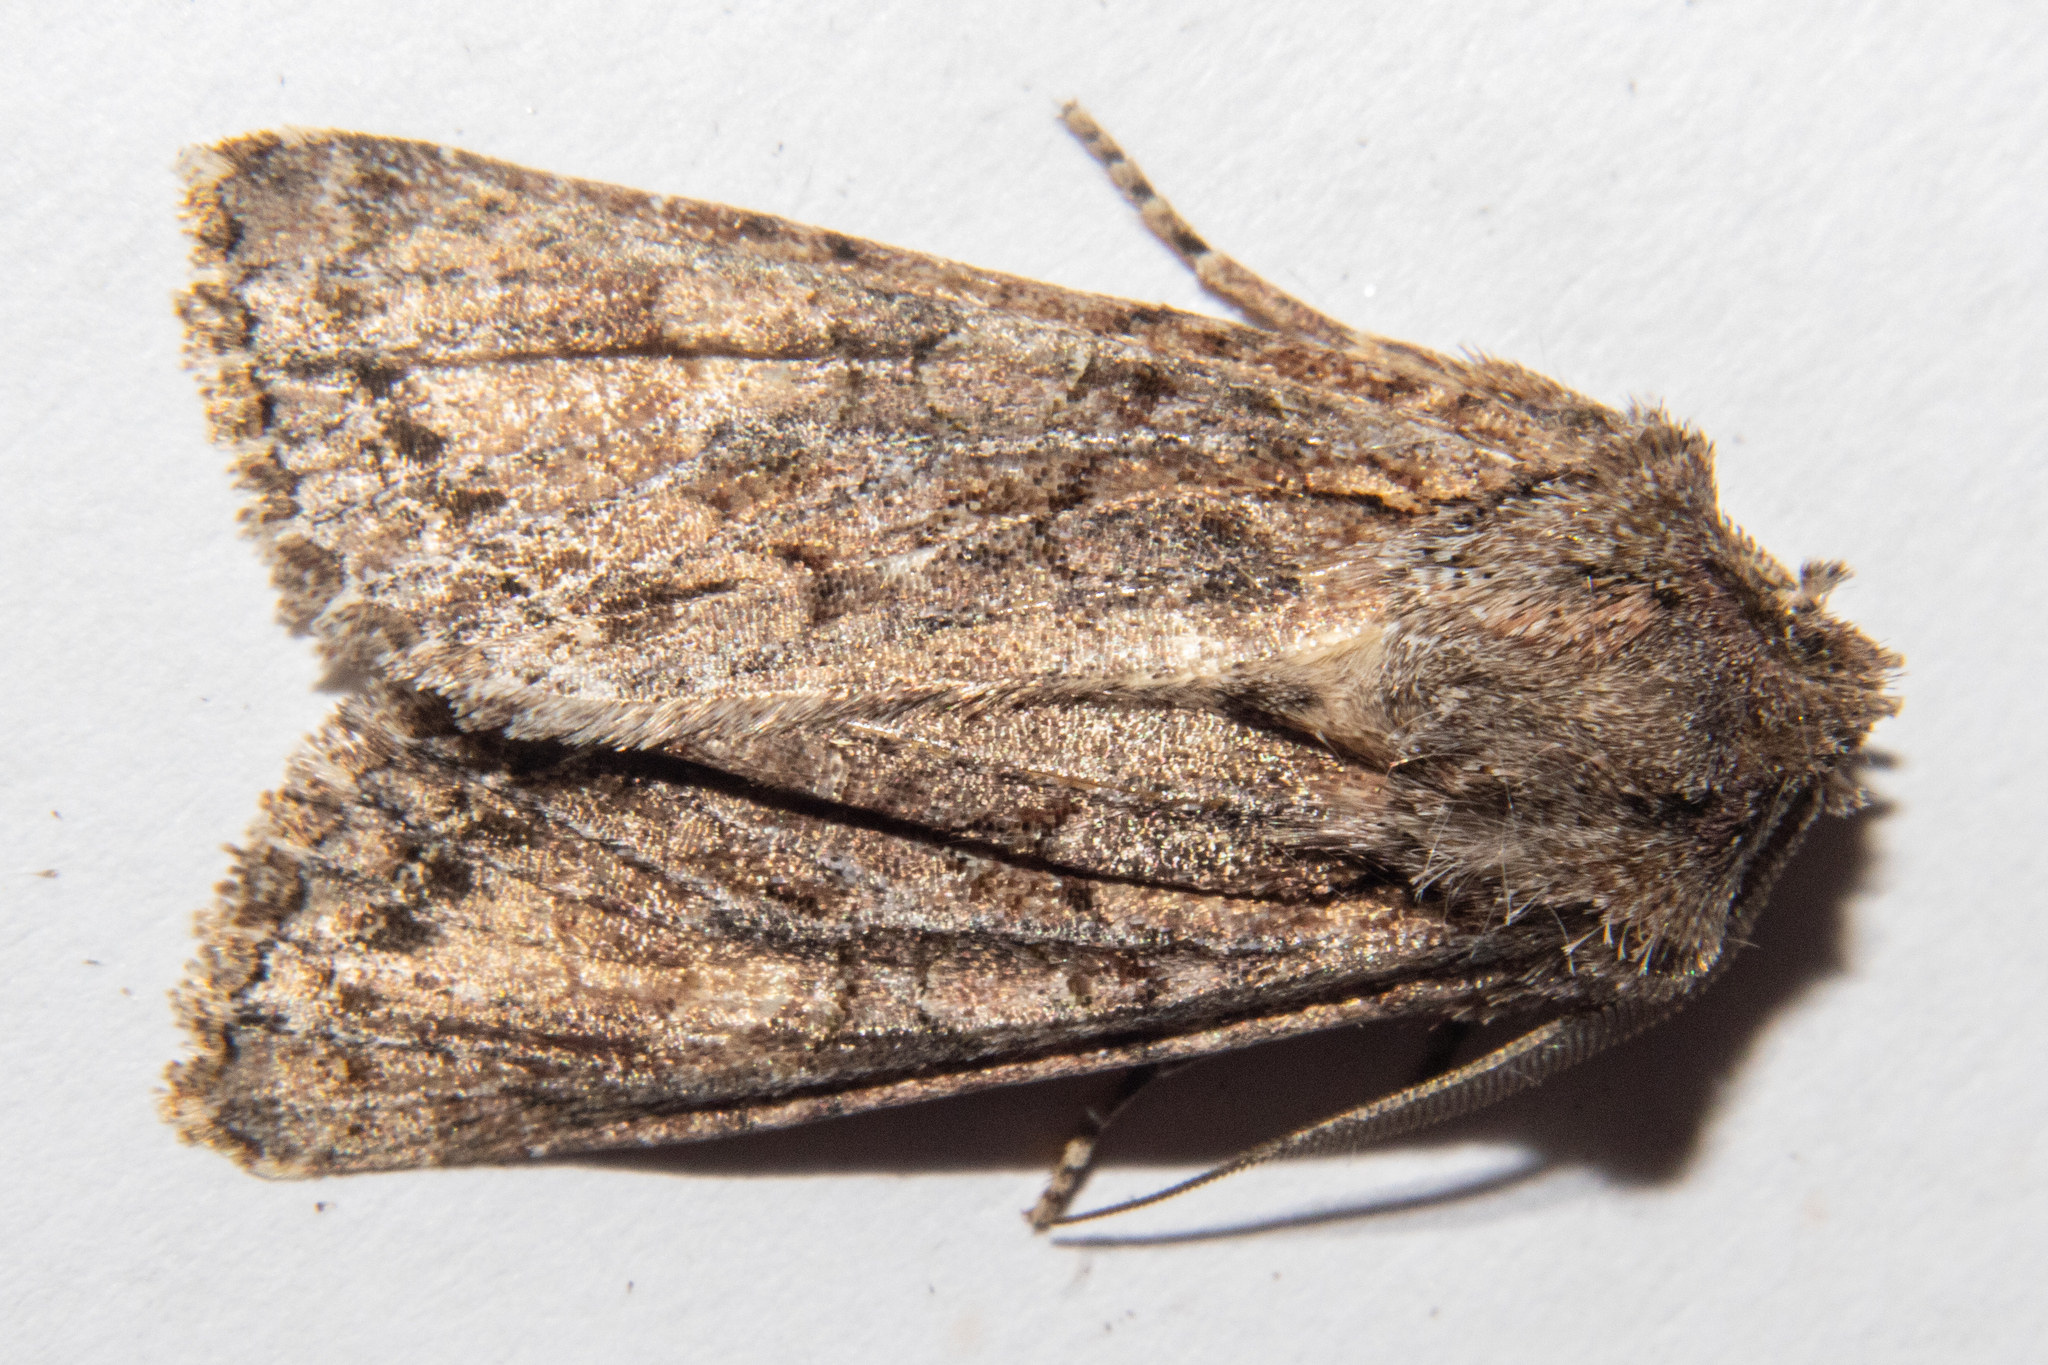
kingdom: Animalia
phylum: Arthropoda
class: Insecta
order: Lepidoptera
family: Noctuidae
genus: Ichneutica
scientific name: Ichneutica mutans
